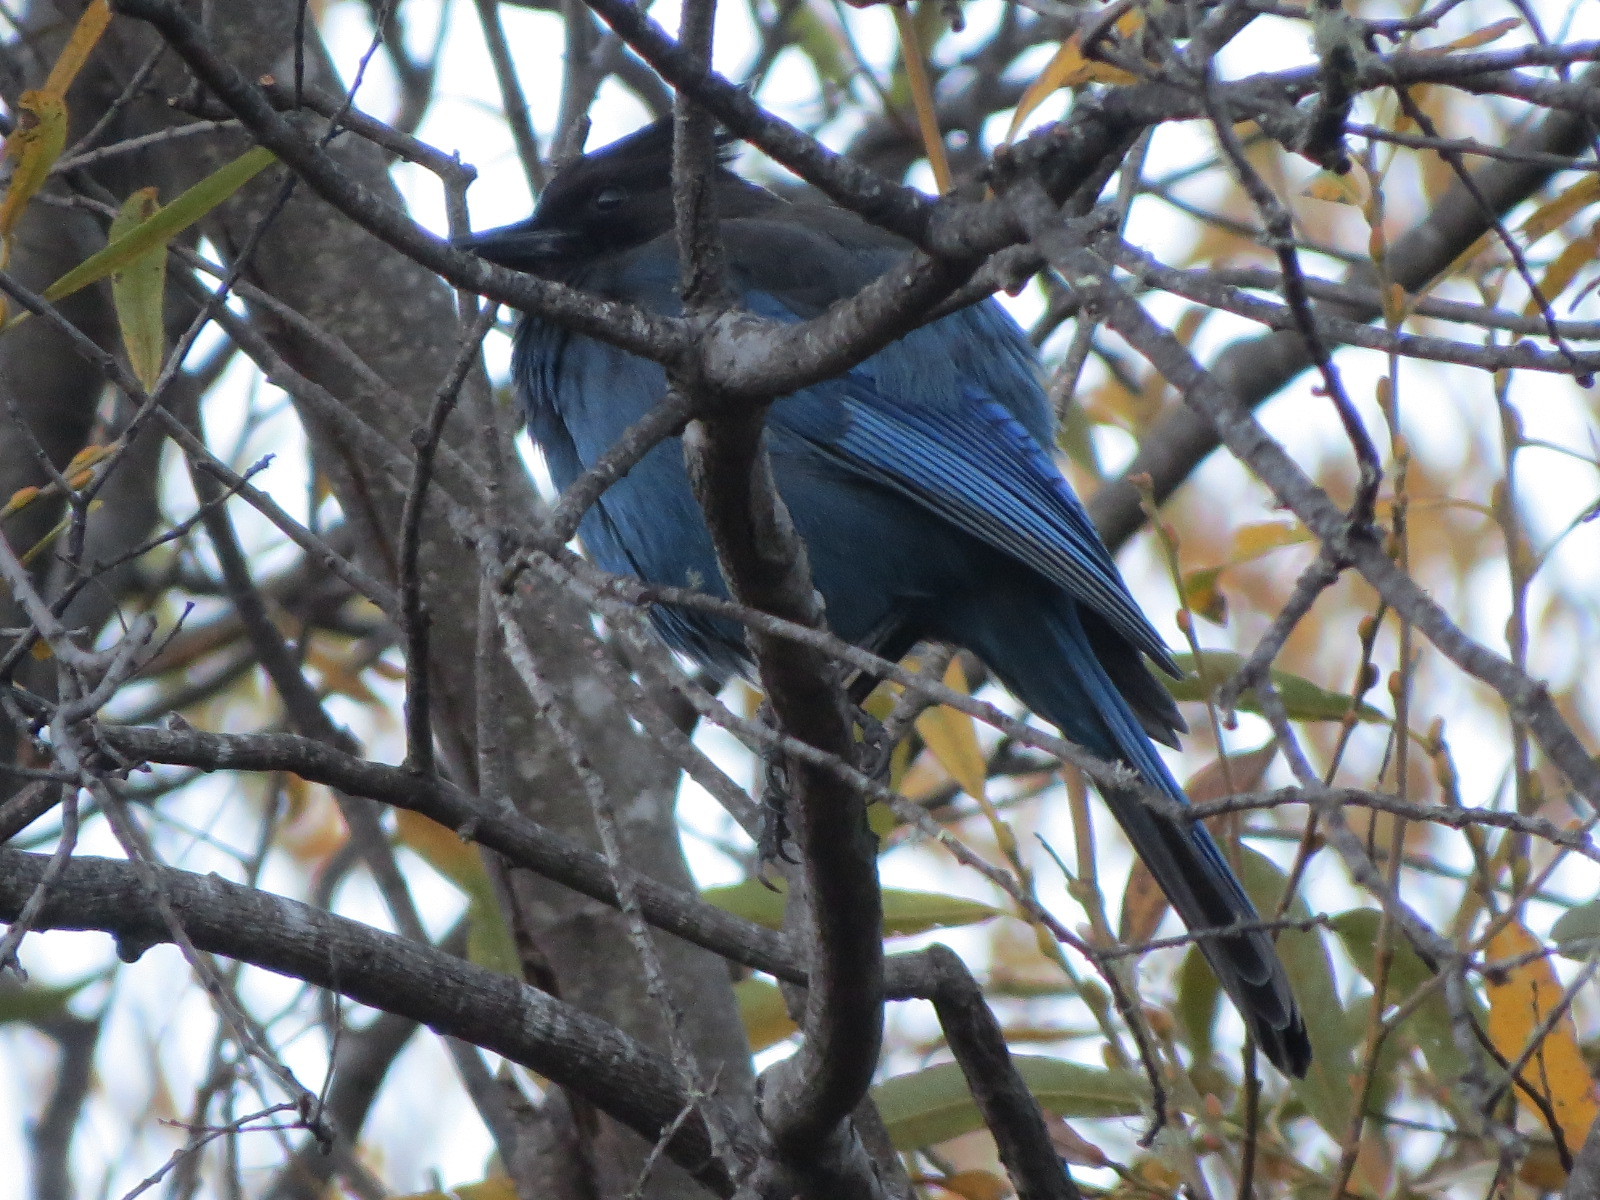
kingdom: Animalia
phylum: Chordata
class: Aves
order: Passeriformes
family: Corvidae
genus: Cyanocitta
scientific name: Cyanocitta stelleri
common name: Steller's jay
